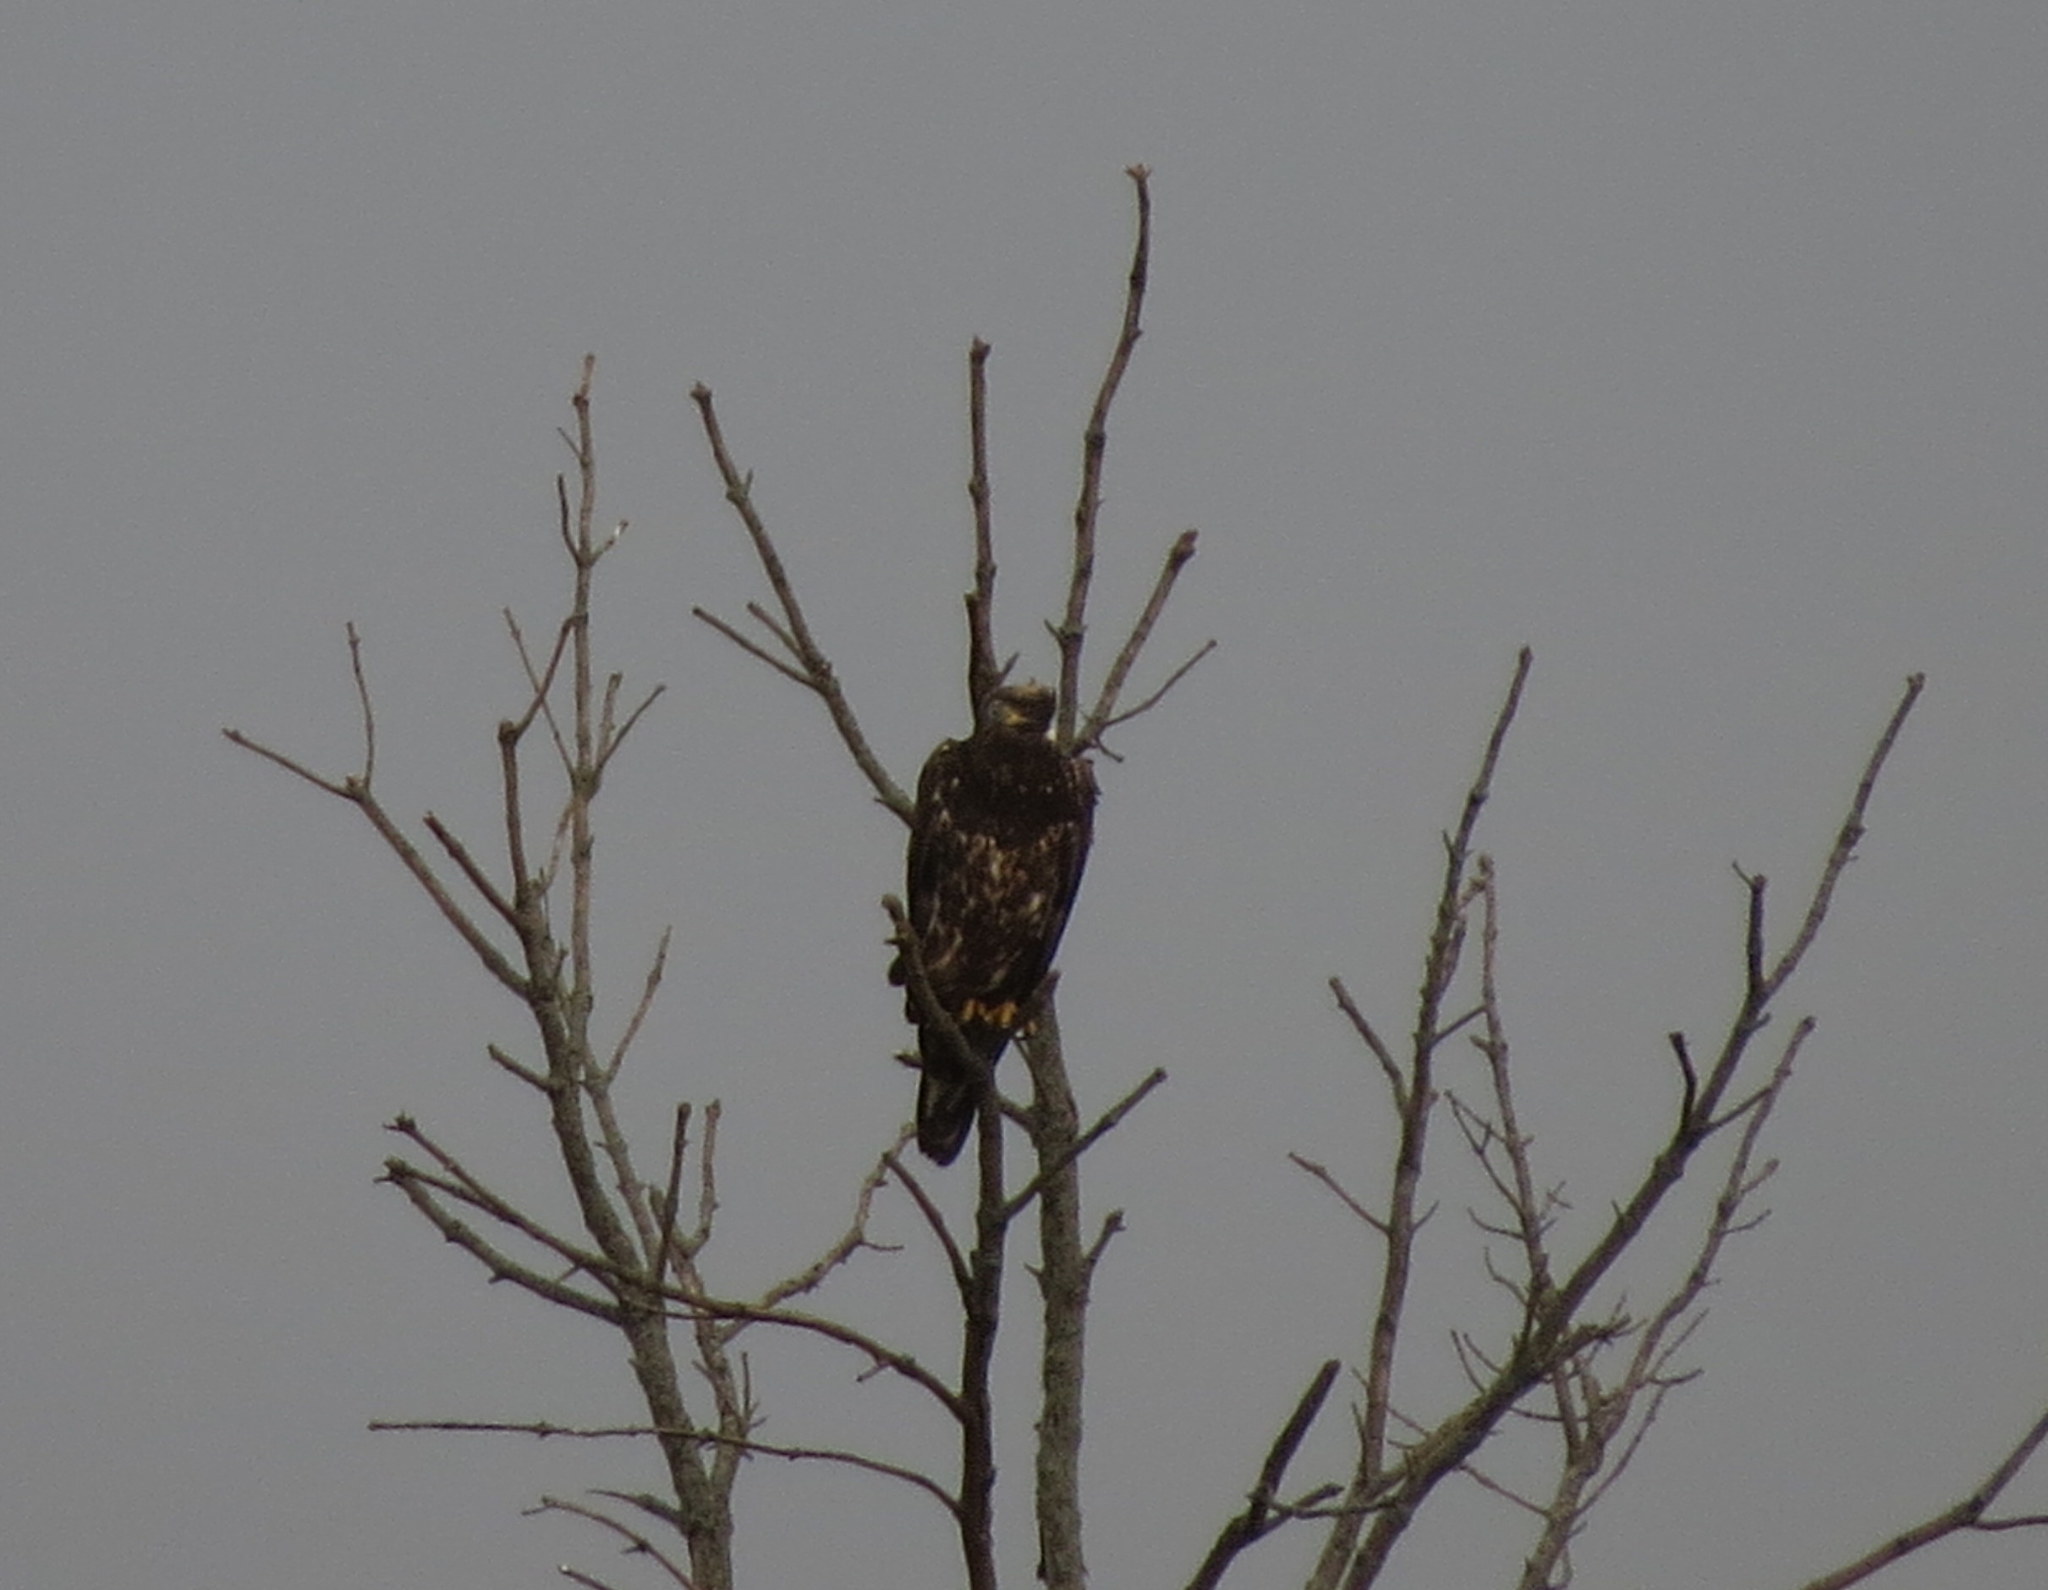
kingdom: Animalia
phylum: Chordata
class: Aves
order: Accipitriformes
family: Accipitridae
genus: Haliaeetus
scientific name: Haliaeetus leucocephalus
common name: Bald eagle
